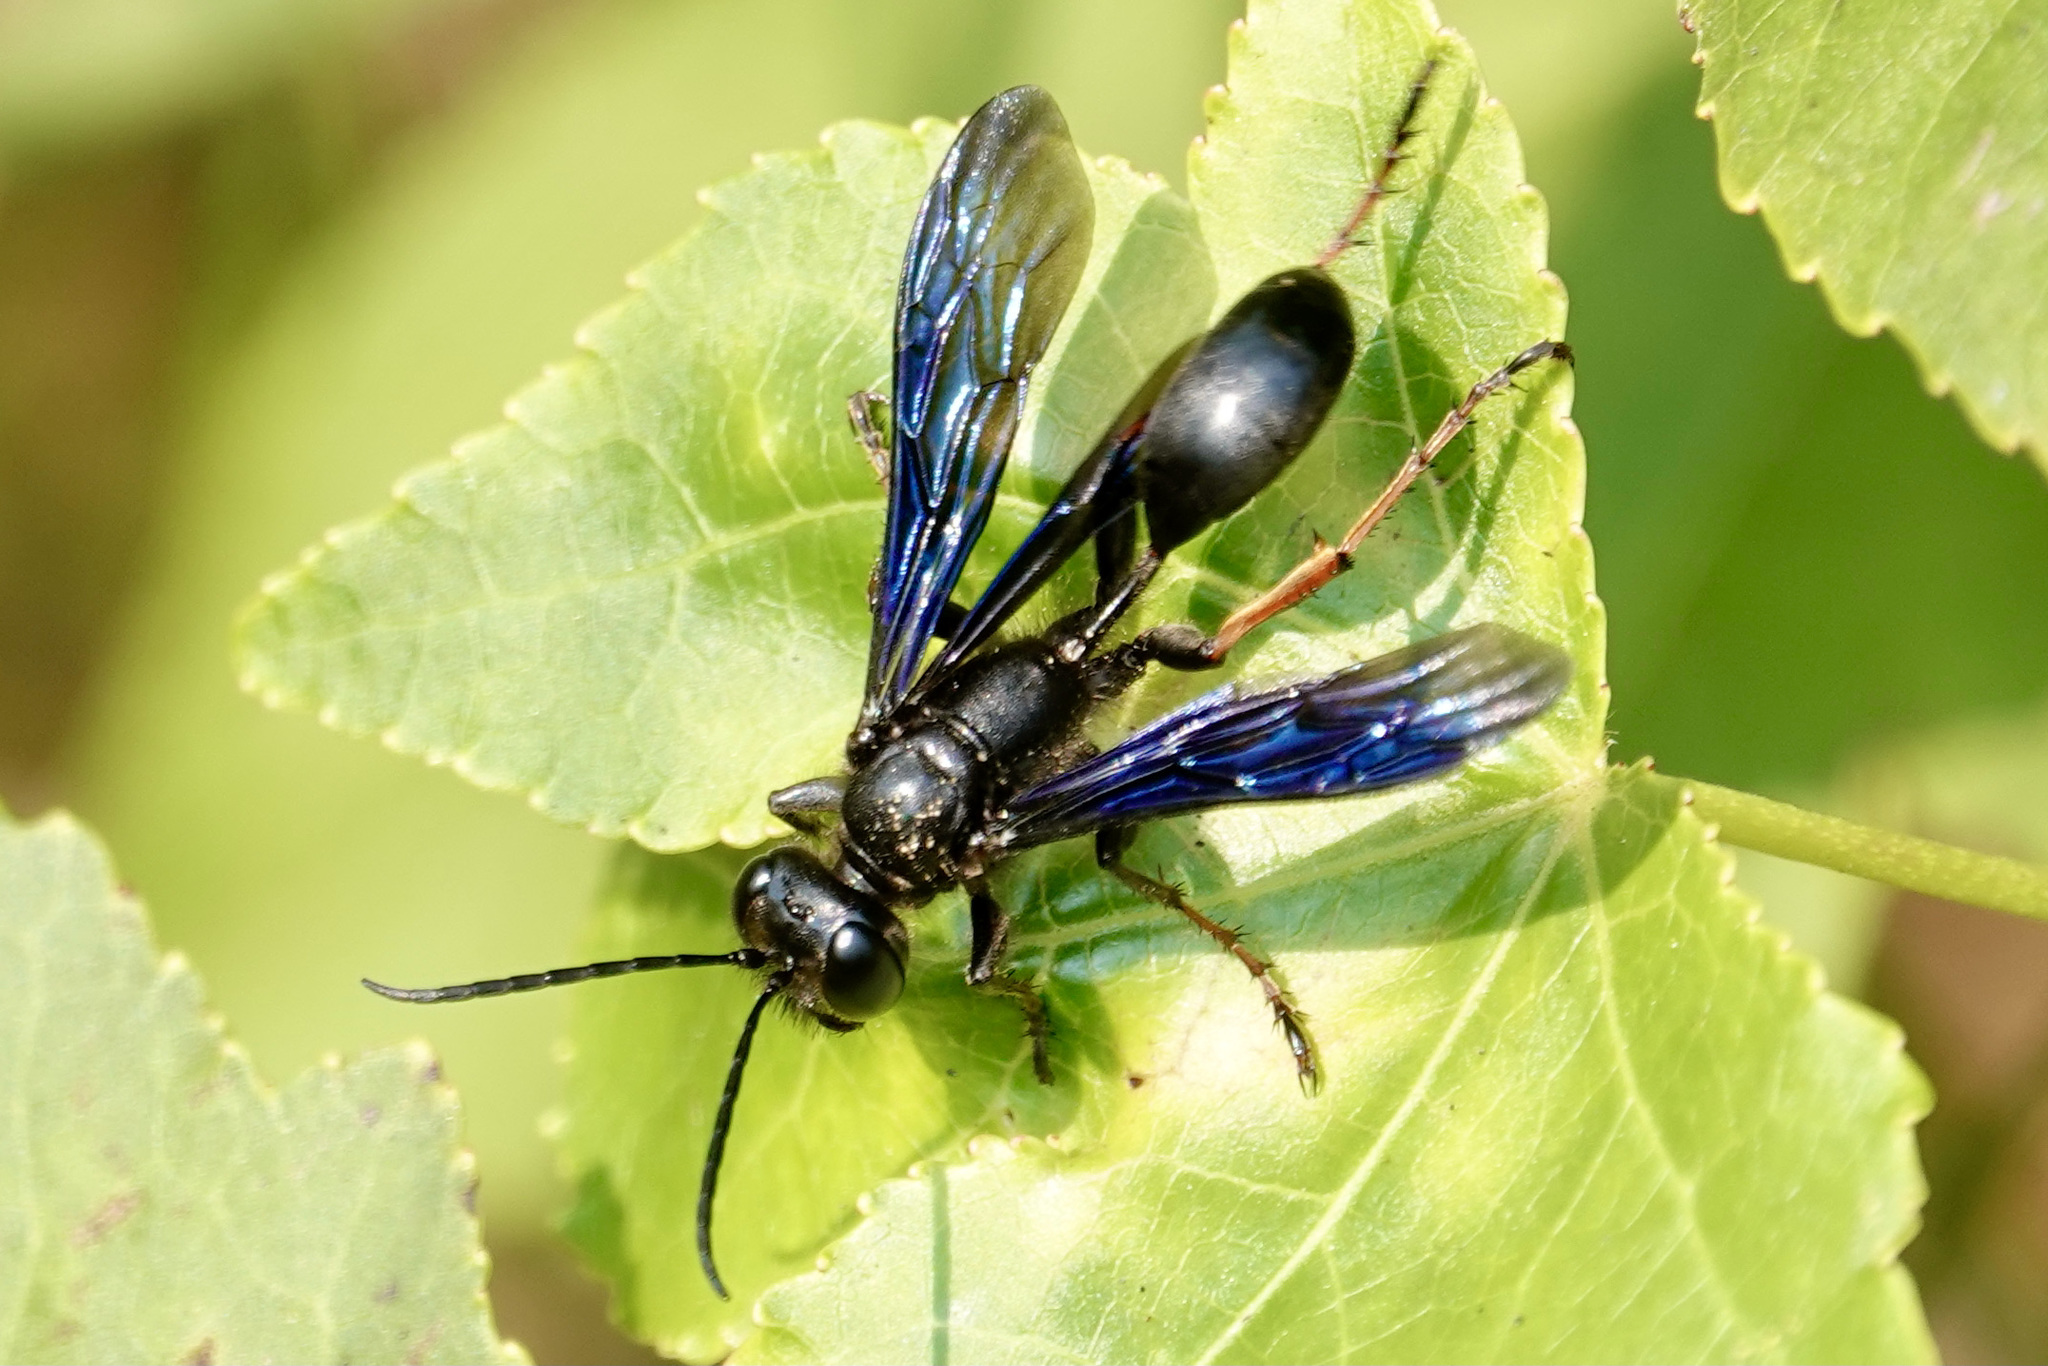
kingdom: Animalia
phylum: Arthropoda
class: Insecta
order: Hymenoptera
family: Sphecidae
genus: Isodontia
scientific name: Isodontia auripes
